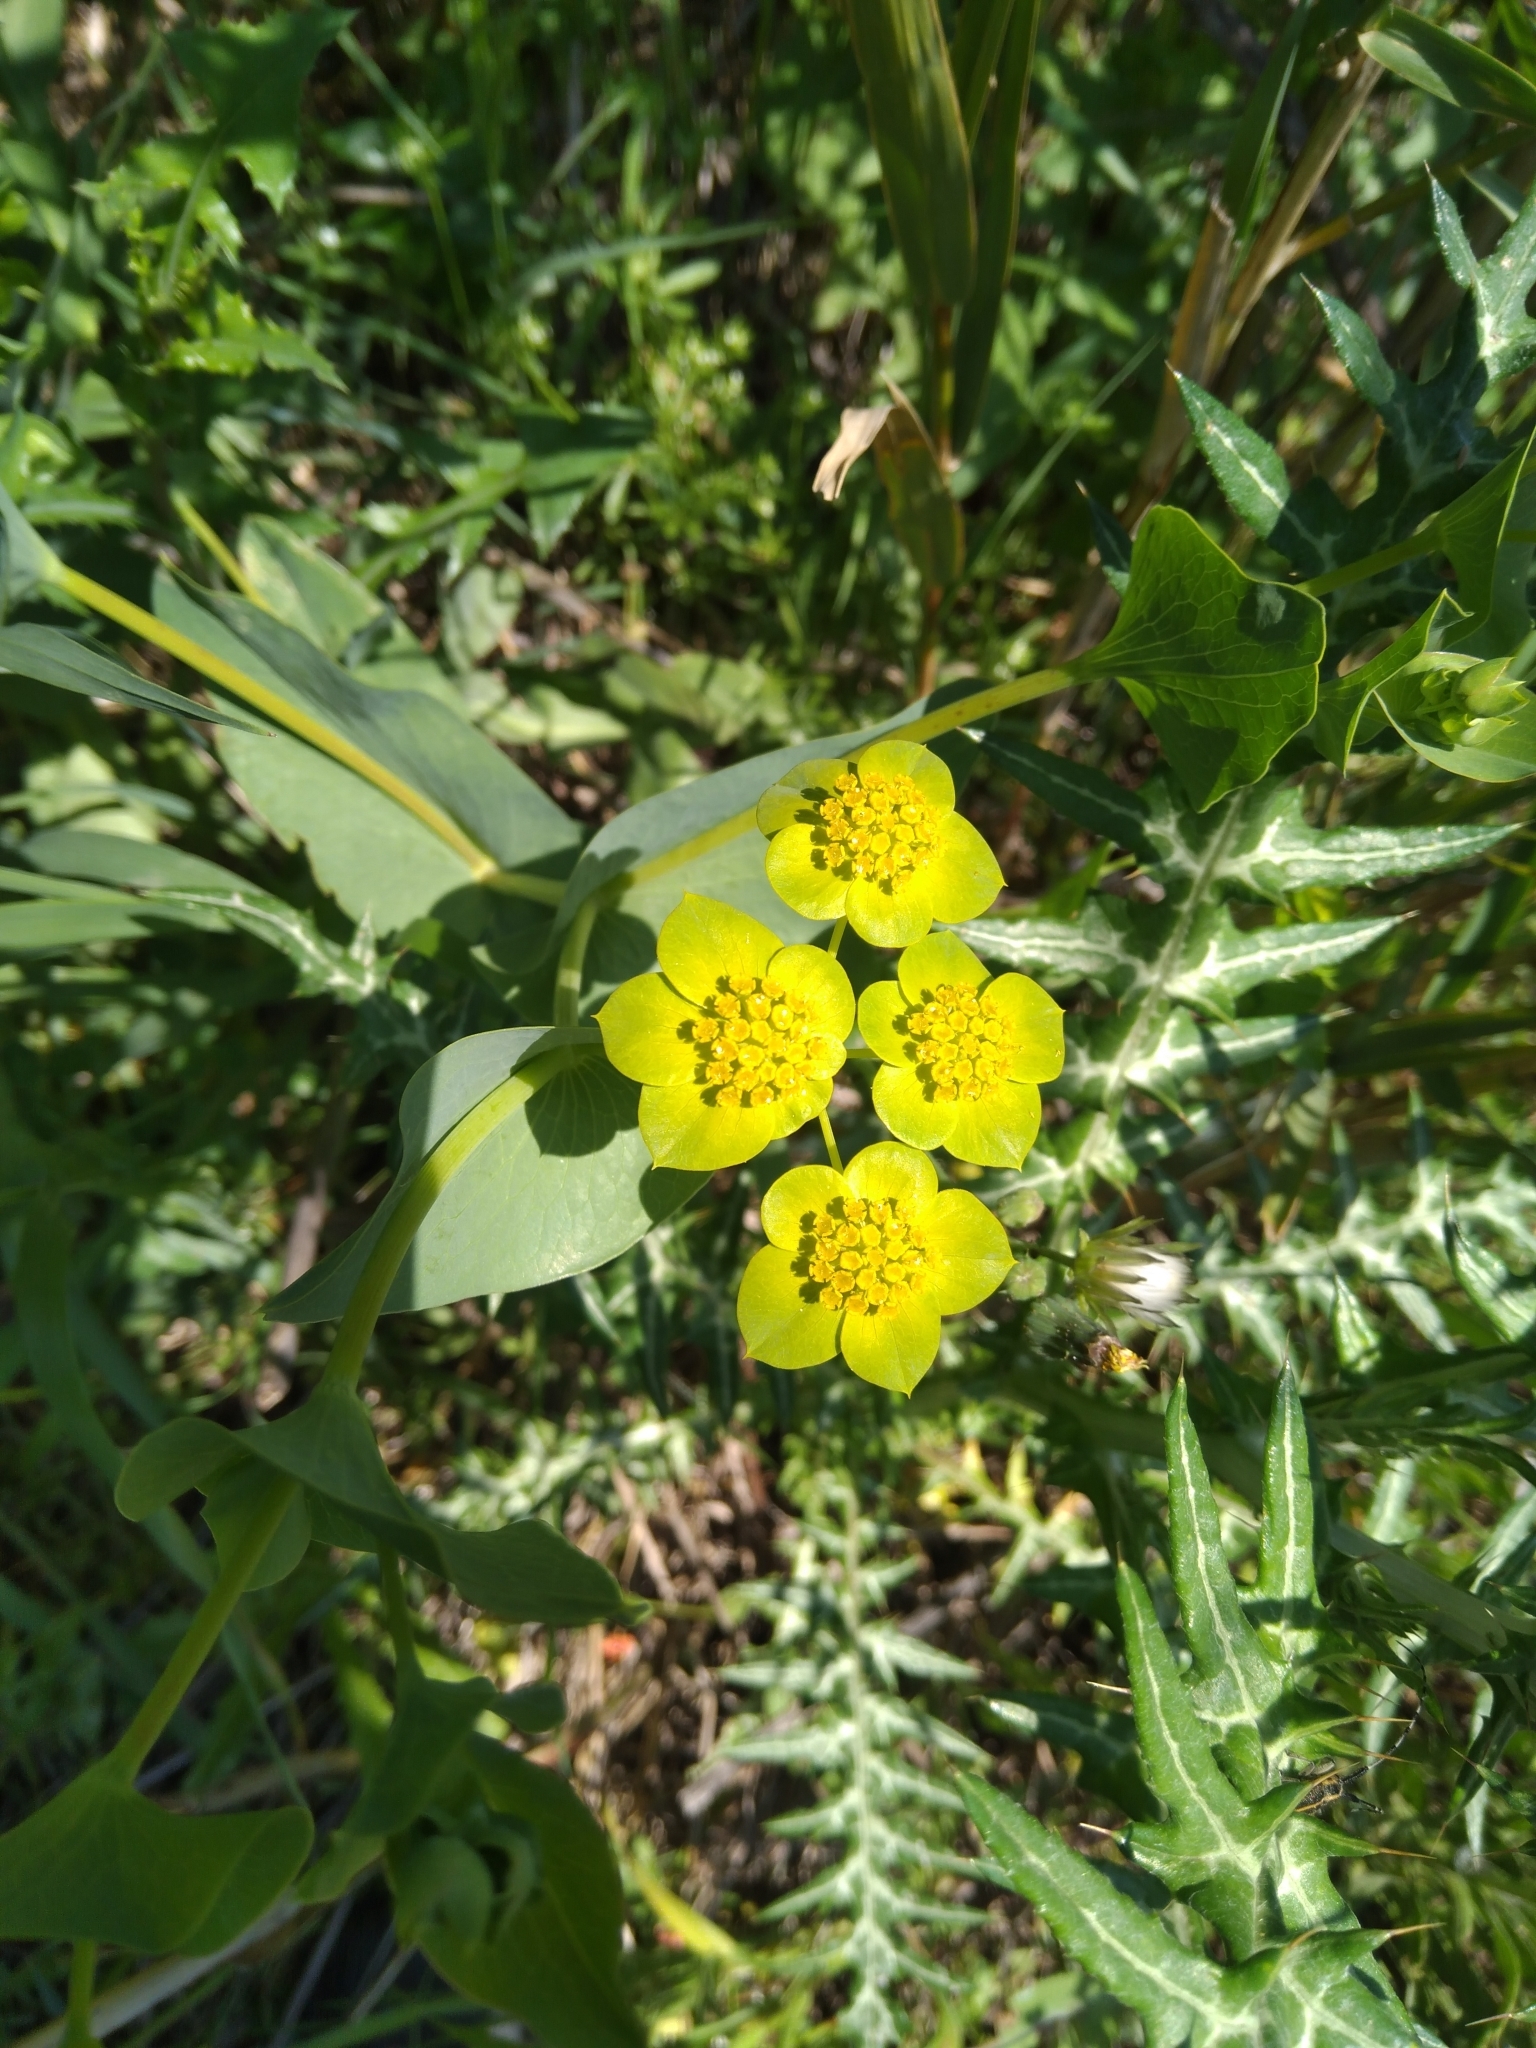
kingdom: Plantae
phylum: Tracheophyta
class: Magnoliopsida
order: Apiales
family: Apiaceae
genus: Bupleurum
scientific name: Bupleurum subovatum
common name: False thorow-wax
